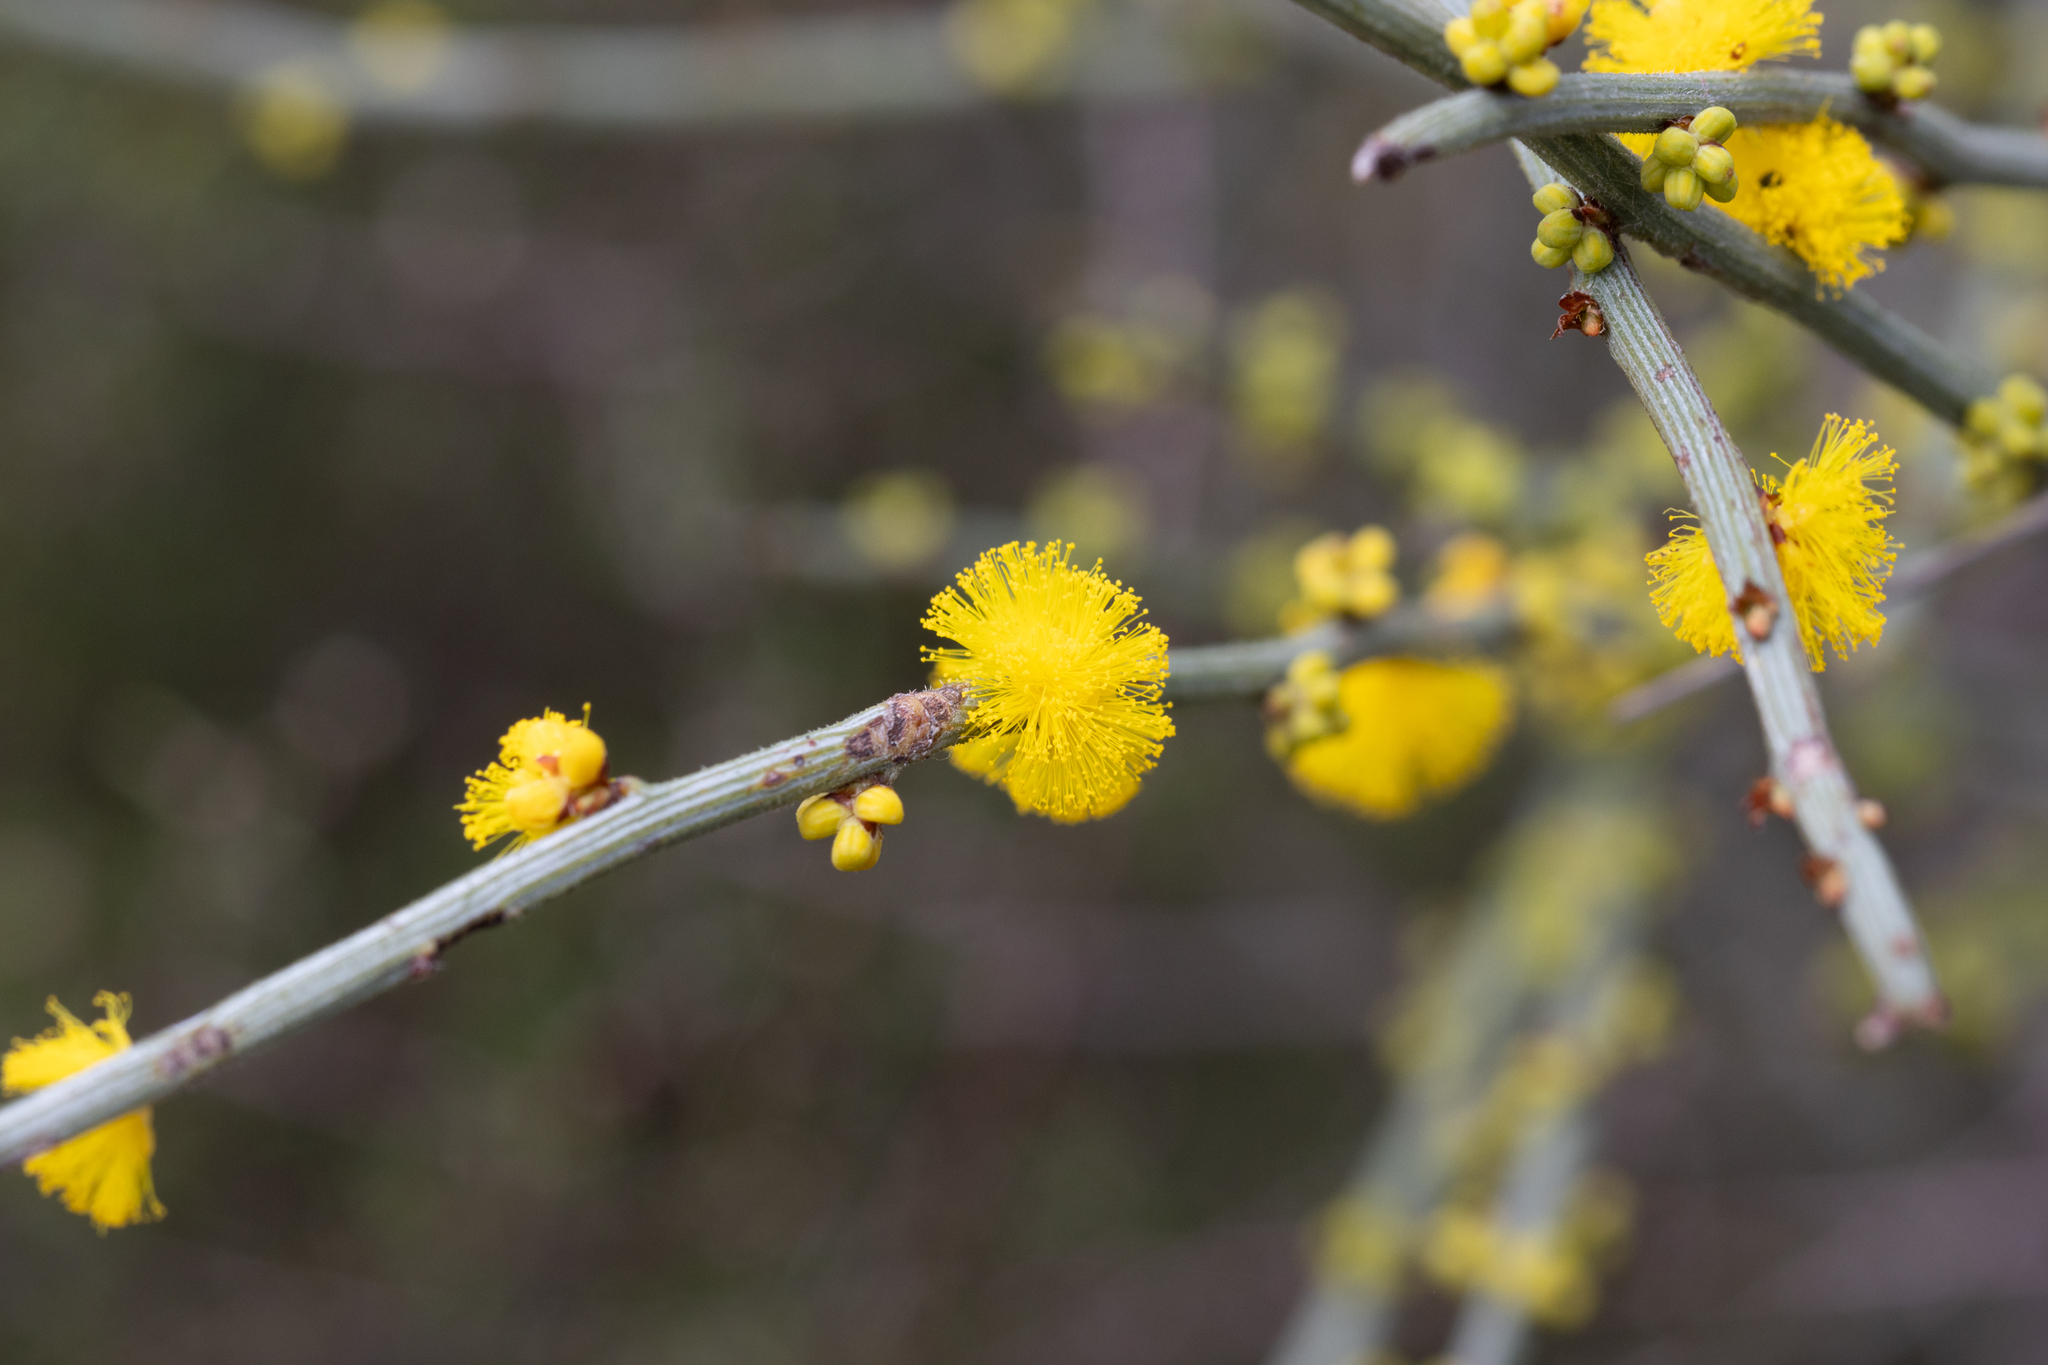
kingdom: Plantae
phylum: Tracheophyta
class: Magnoliopsida
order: Fabales
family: Fabaceae
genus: Acacia
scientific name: Acacia spinescens
